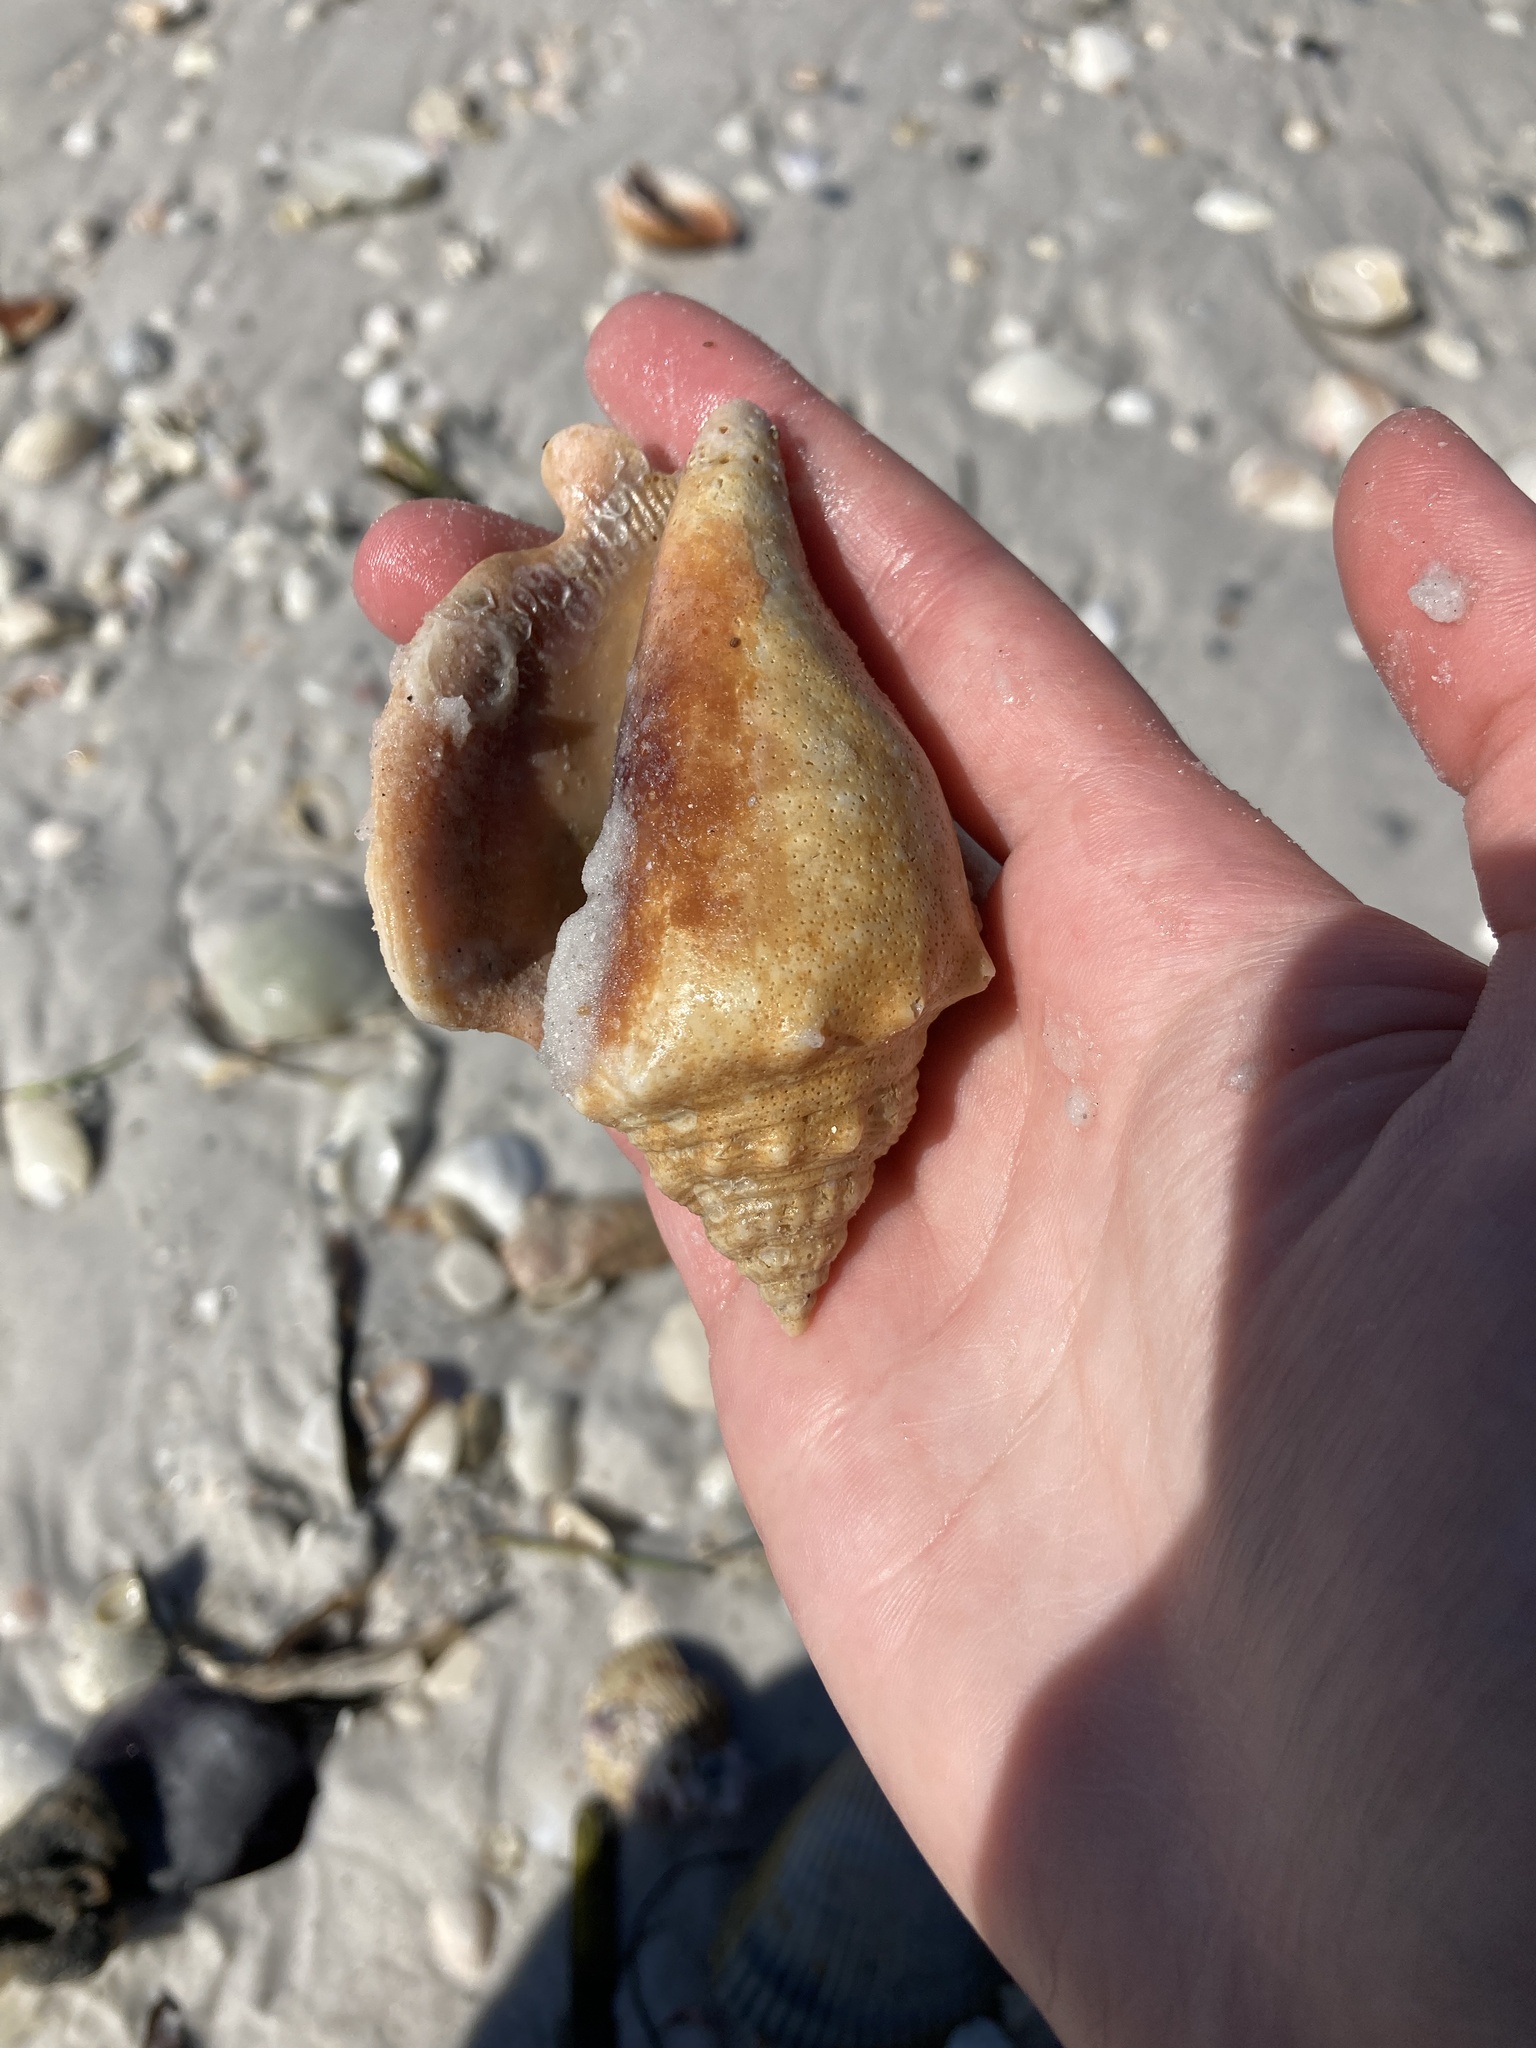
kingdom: Animalia
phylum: Mollusca
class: Gastropoda
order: Littorinimorpha
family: Strombidae
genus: Strombus
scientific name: Strombus alatus
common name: Florida fighting conch
